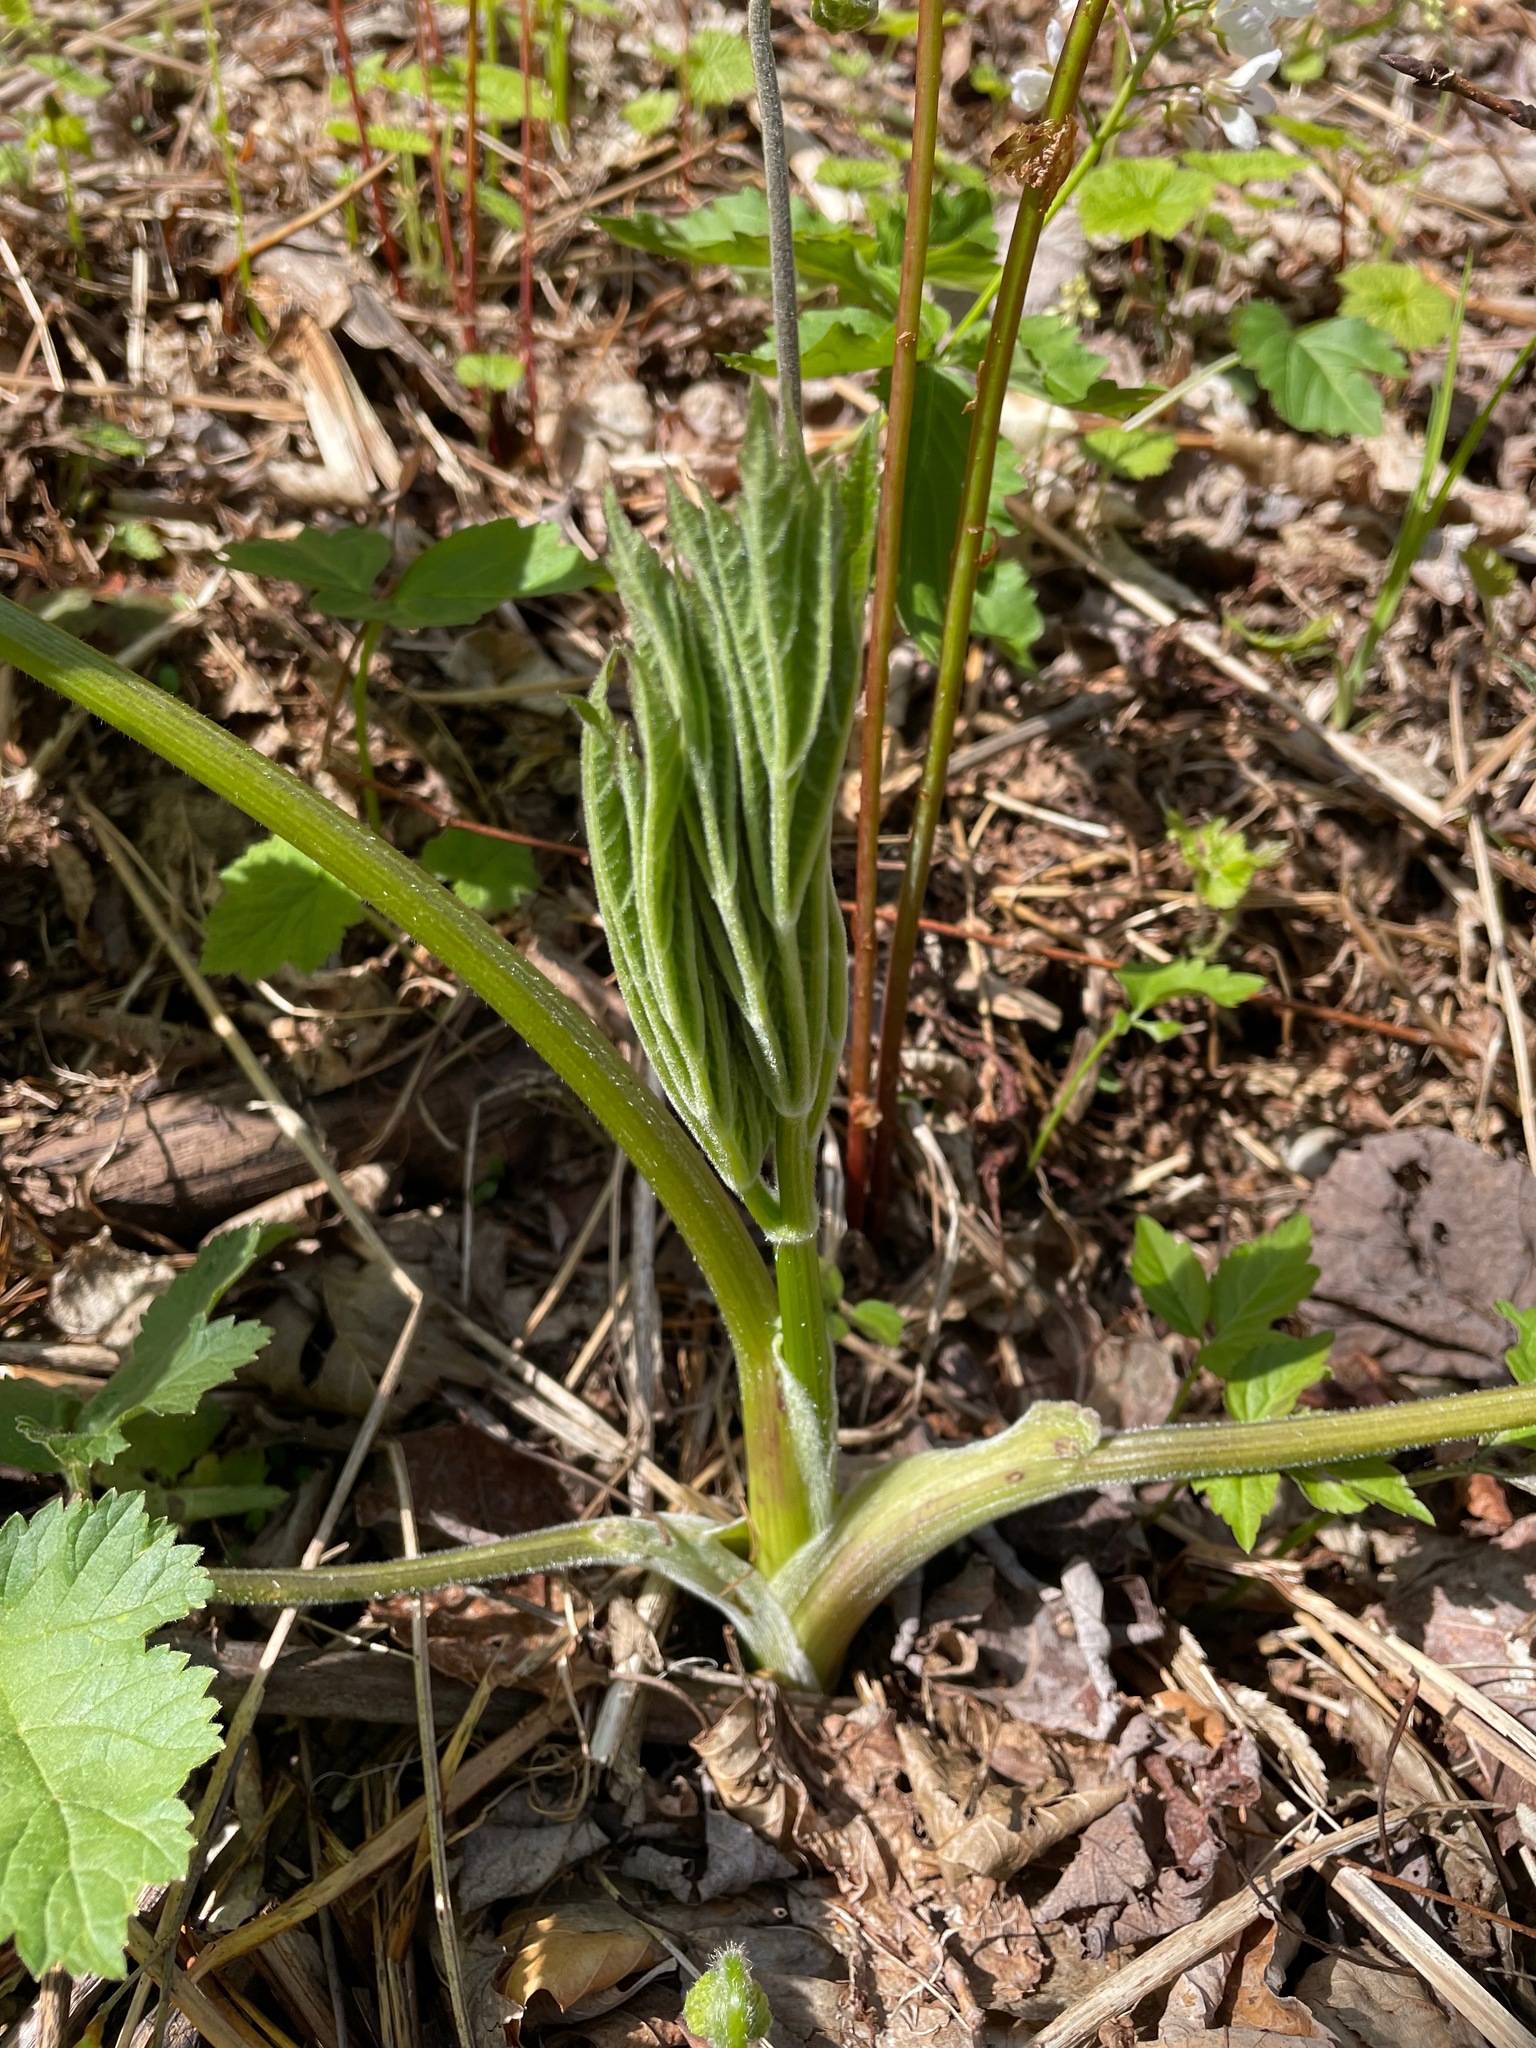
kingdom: Plantae
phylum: Tracheophyta
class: Magnoliopsida
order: Apiales
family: Apiaceae
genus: Heracleum
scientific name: Heracleum maximum
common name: American cow parsnip
